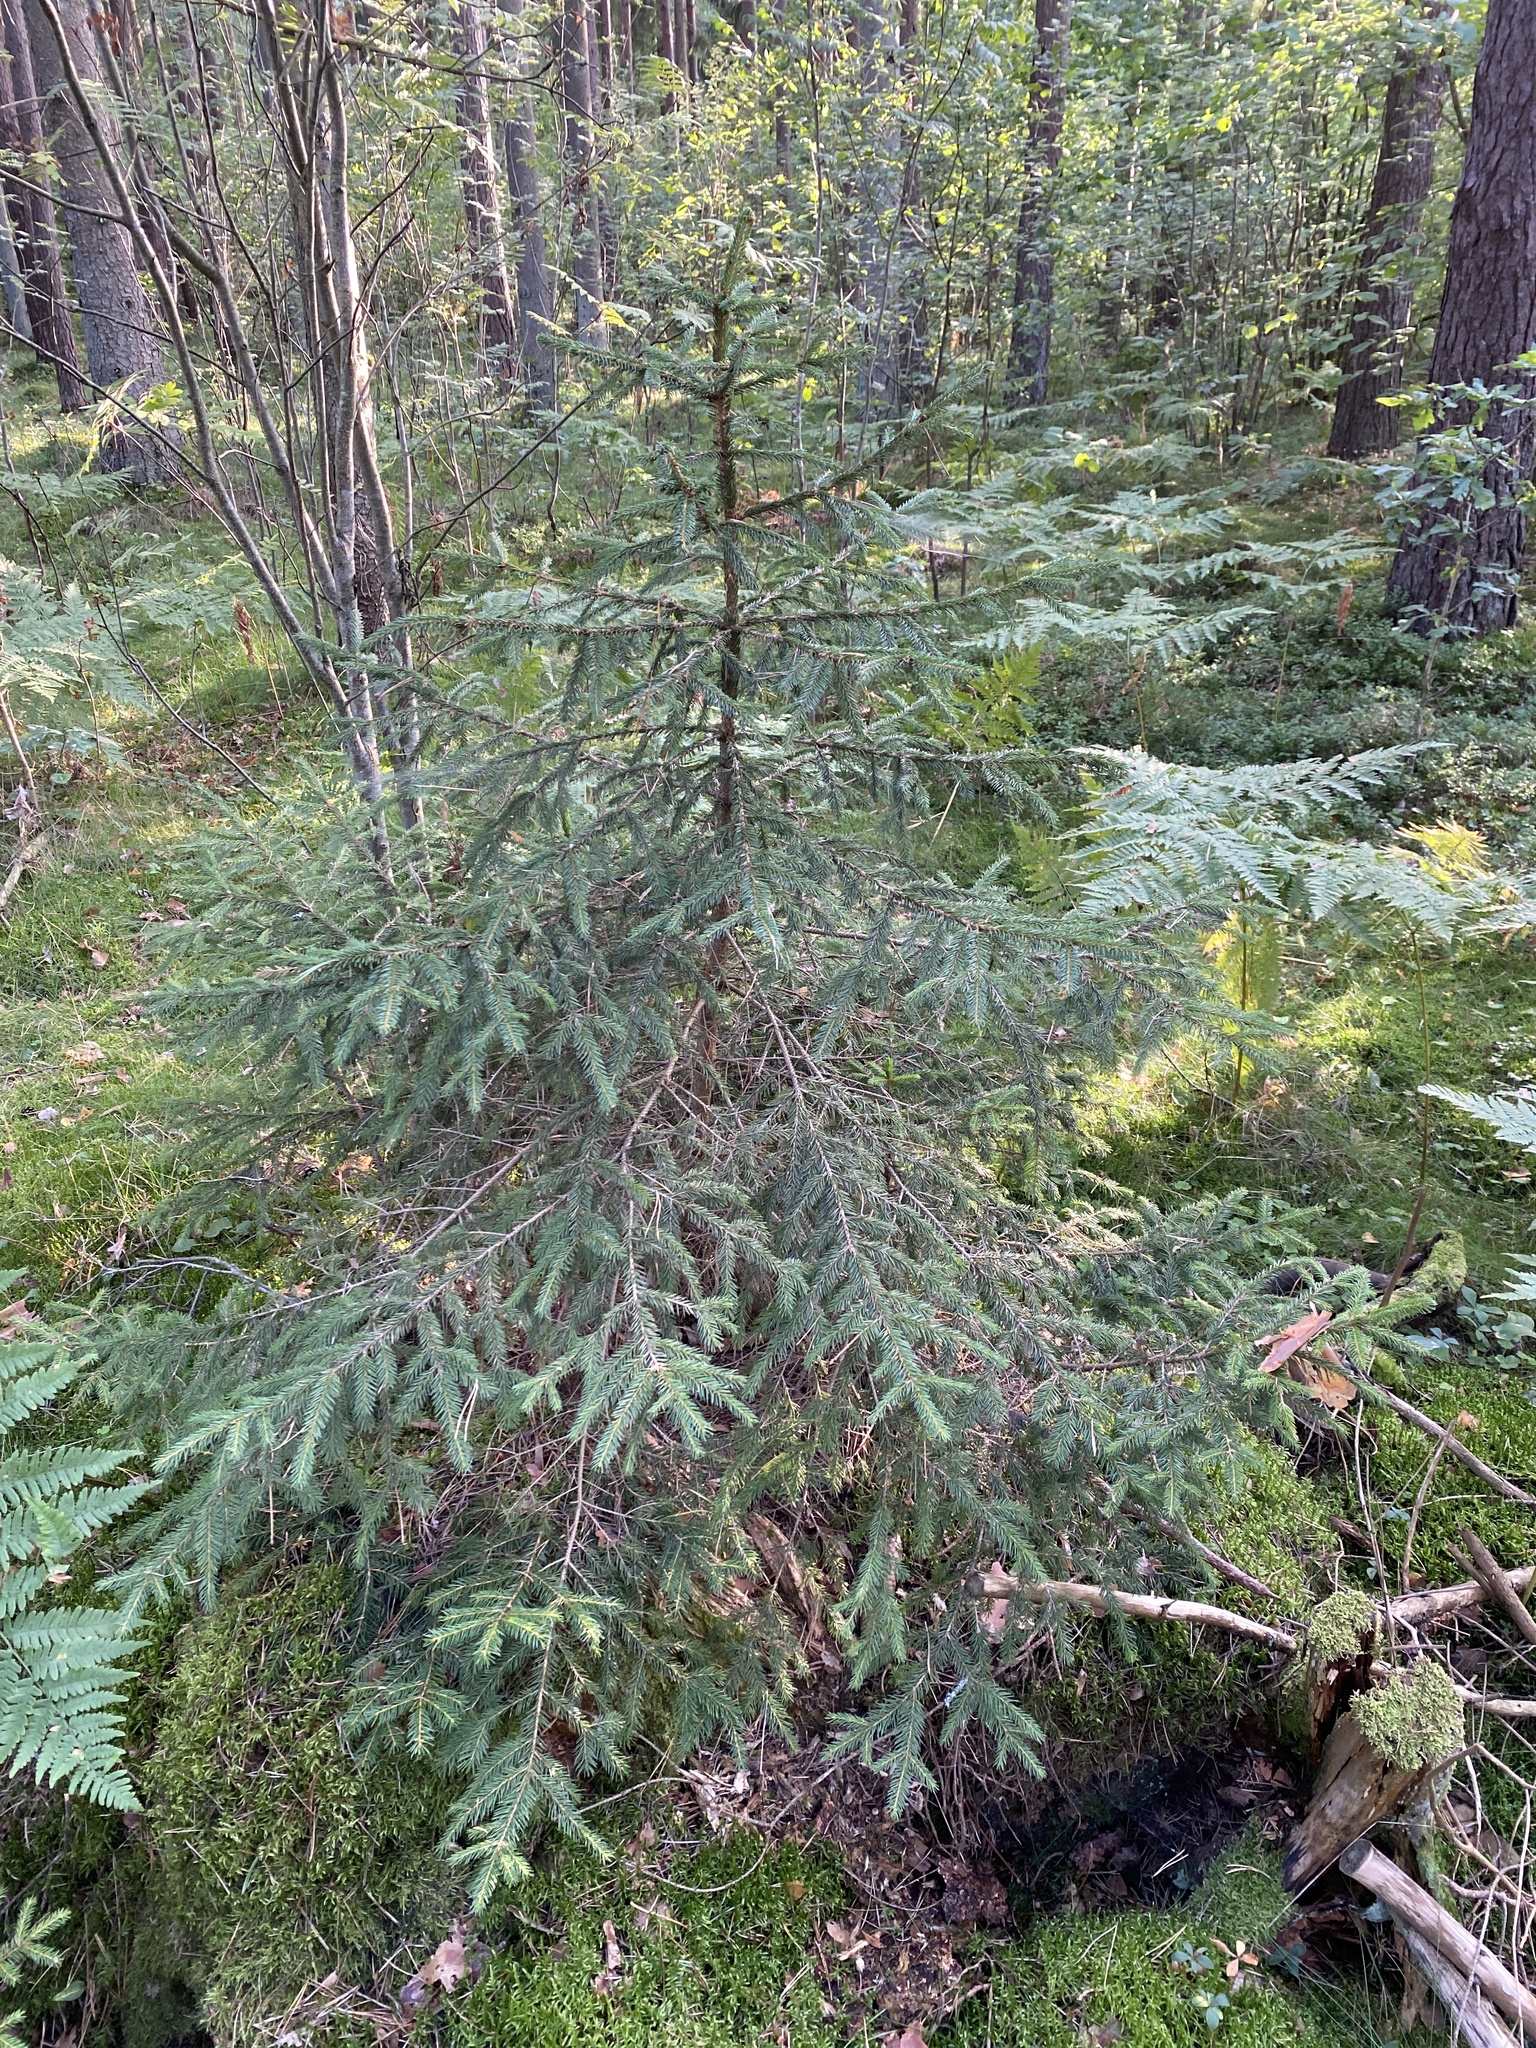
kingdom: Plantae
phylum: Tracheophyta
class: Pinopsida
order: Pinales
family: Pinaceae
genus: Picea
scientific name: Picea abies
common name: Norway spruce
